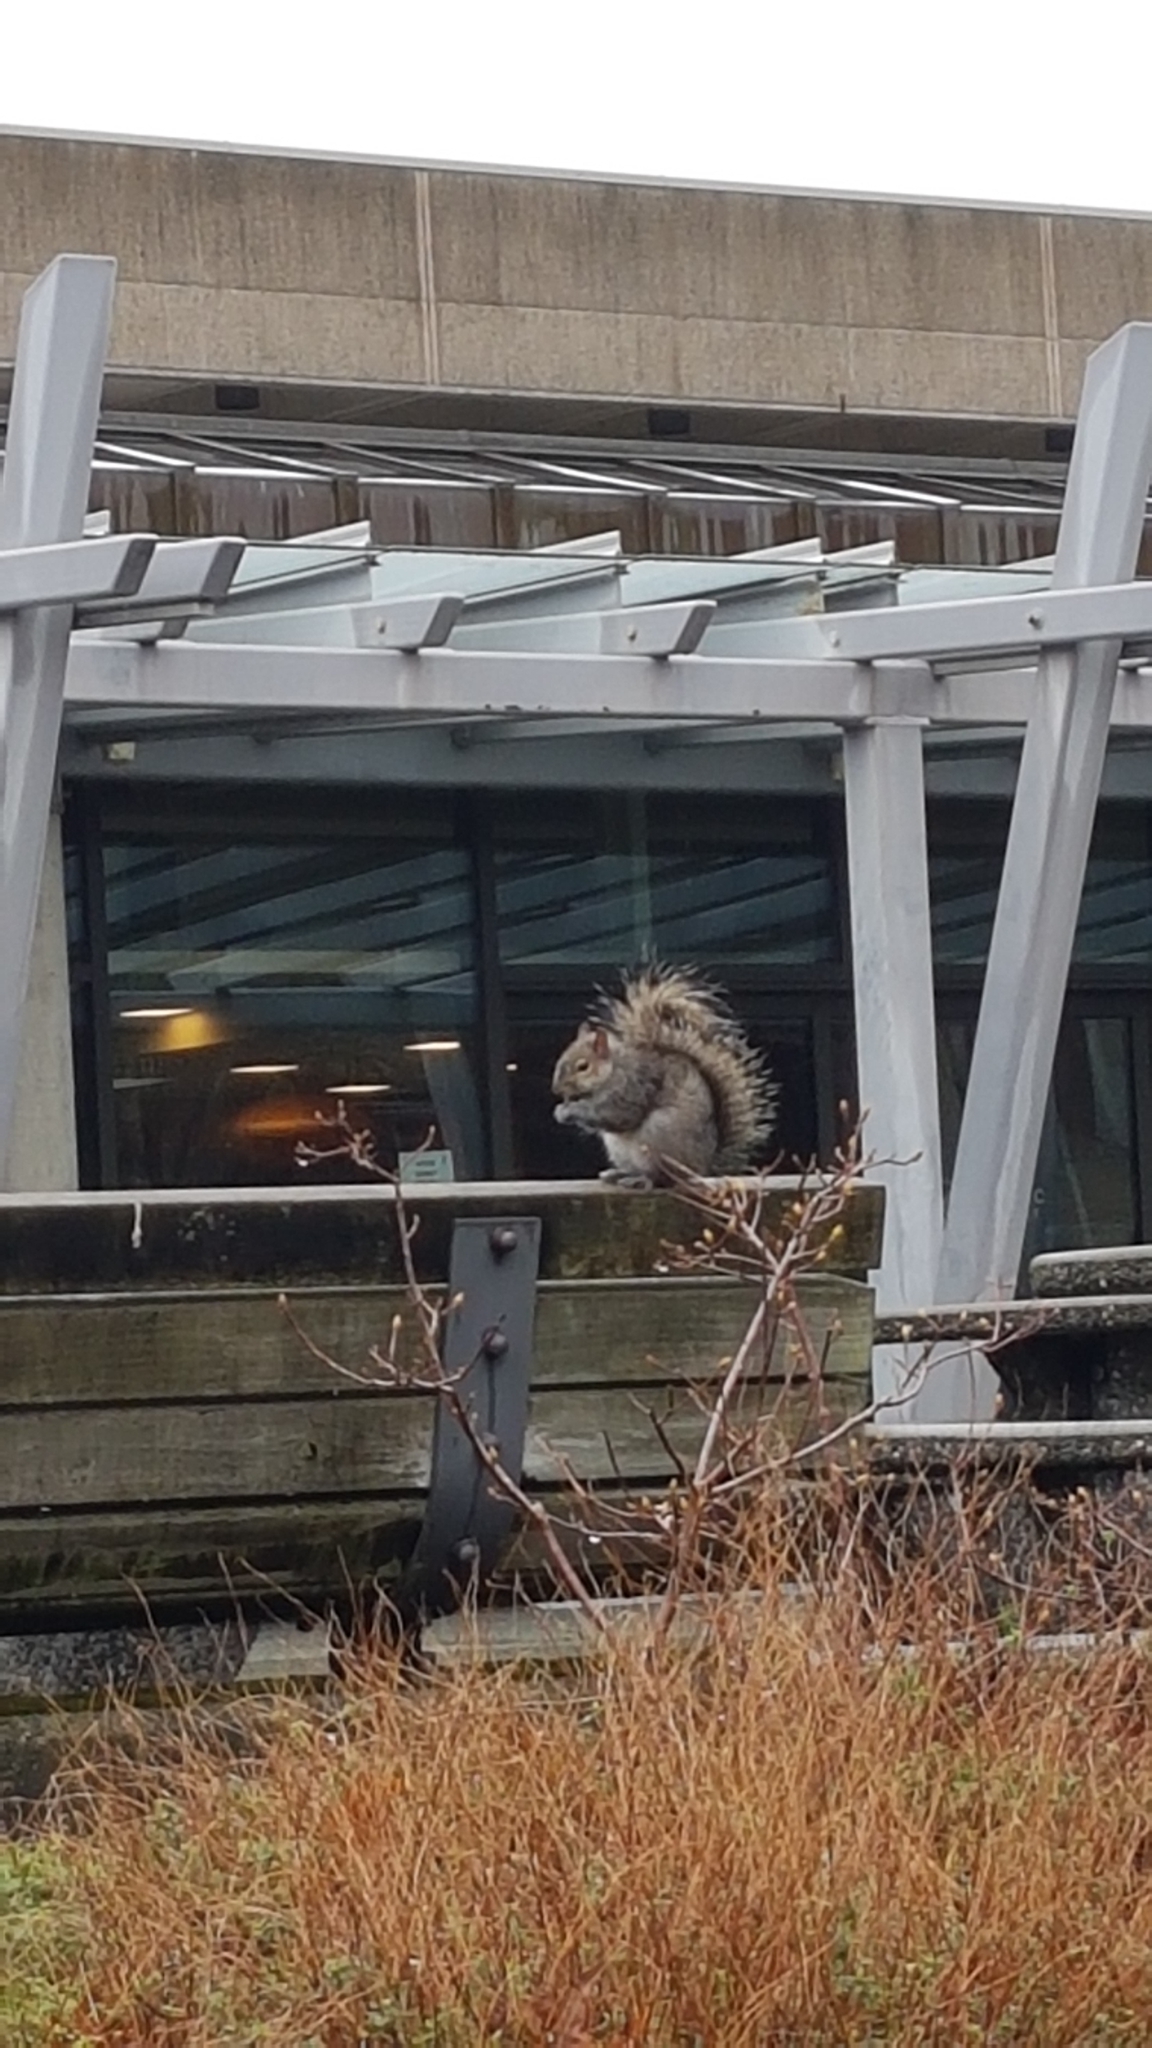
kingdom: Animalia
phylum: Chordata
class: Mammalia
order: Rodentia
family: Sciuridae
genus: Sciurus
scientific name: Sciurus carolinensis
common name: Eastern gray squirrel
